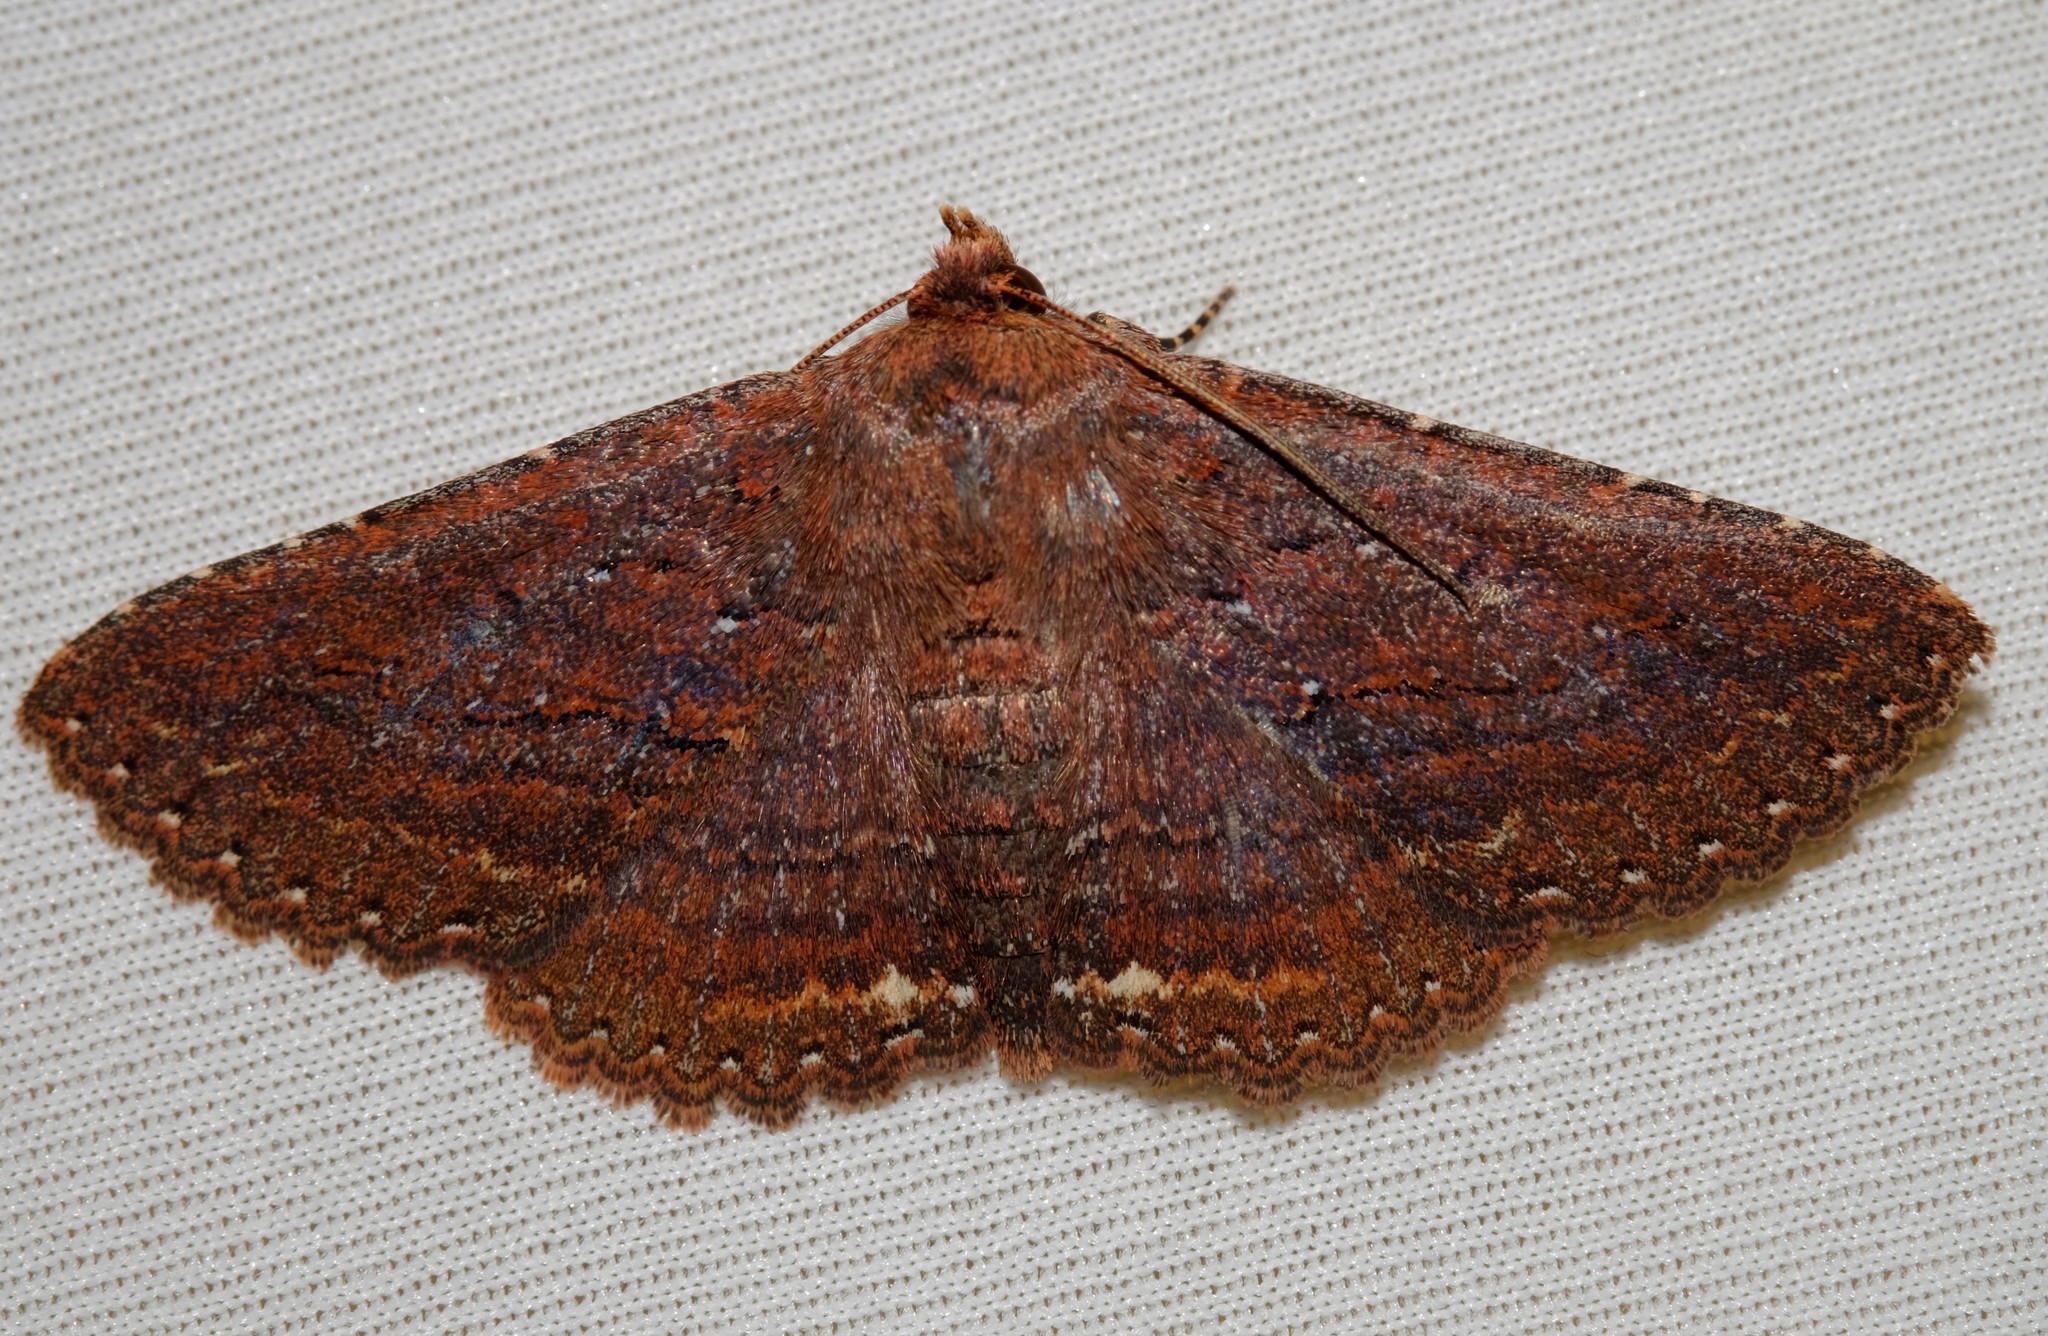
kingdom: Animalia
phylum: Arthropoda
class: Insecta
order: Lepidoptera
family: Erebidae
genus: Praxis
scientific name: Praxis porphyretica
